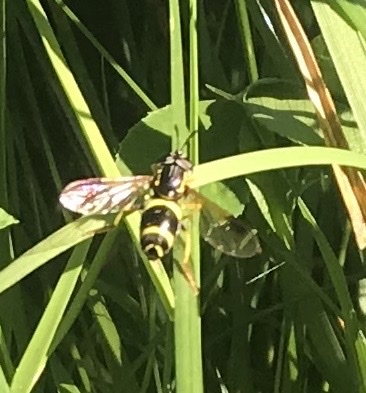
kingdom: Animalia
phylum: Arthropoda
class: Insecta
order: Diptera
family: Syrphidae
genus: Chrysotoxum
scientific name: Chrysotoxum bicincta
